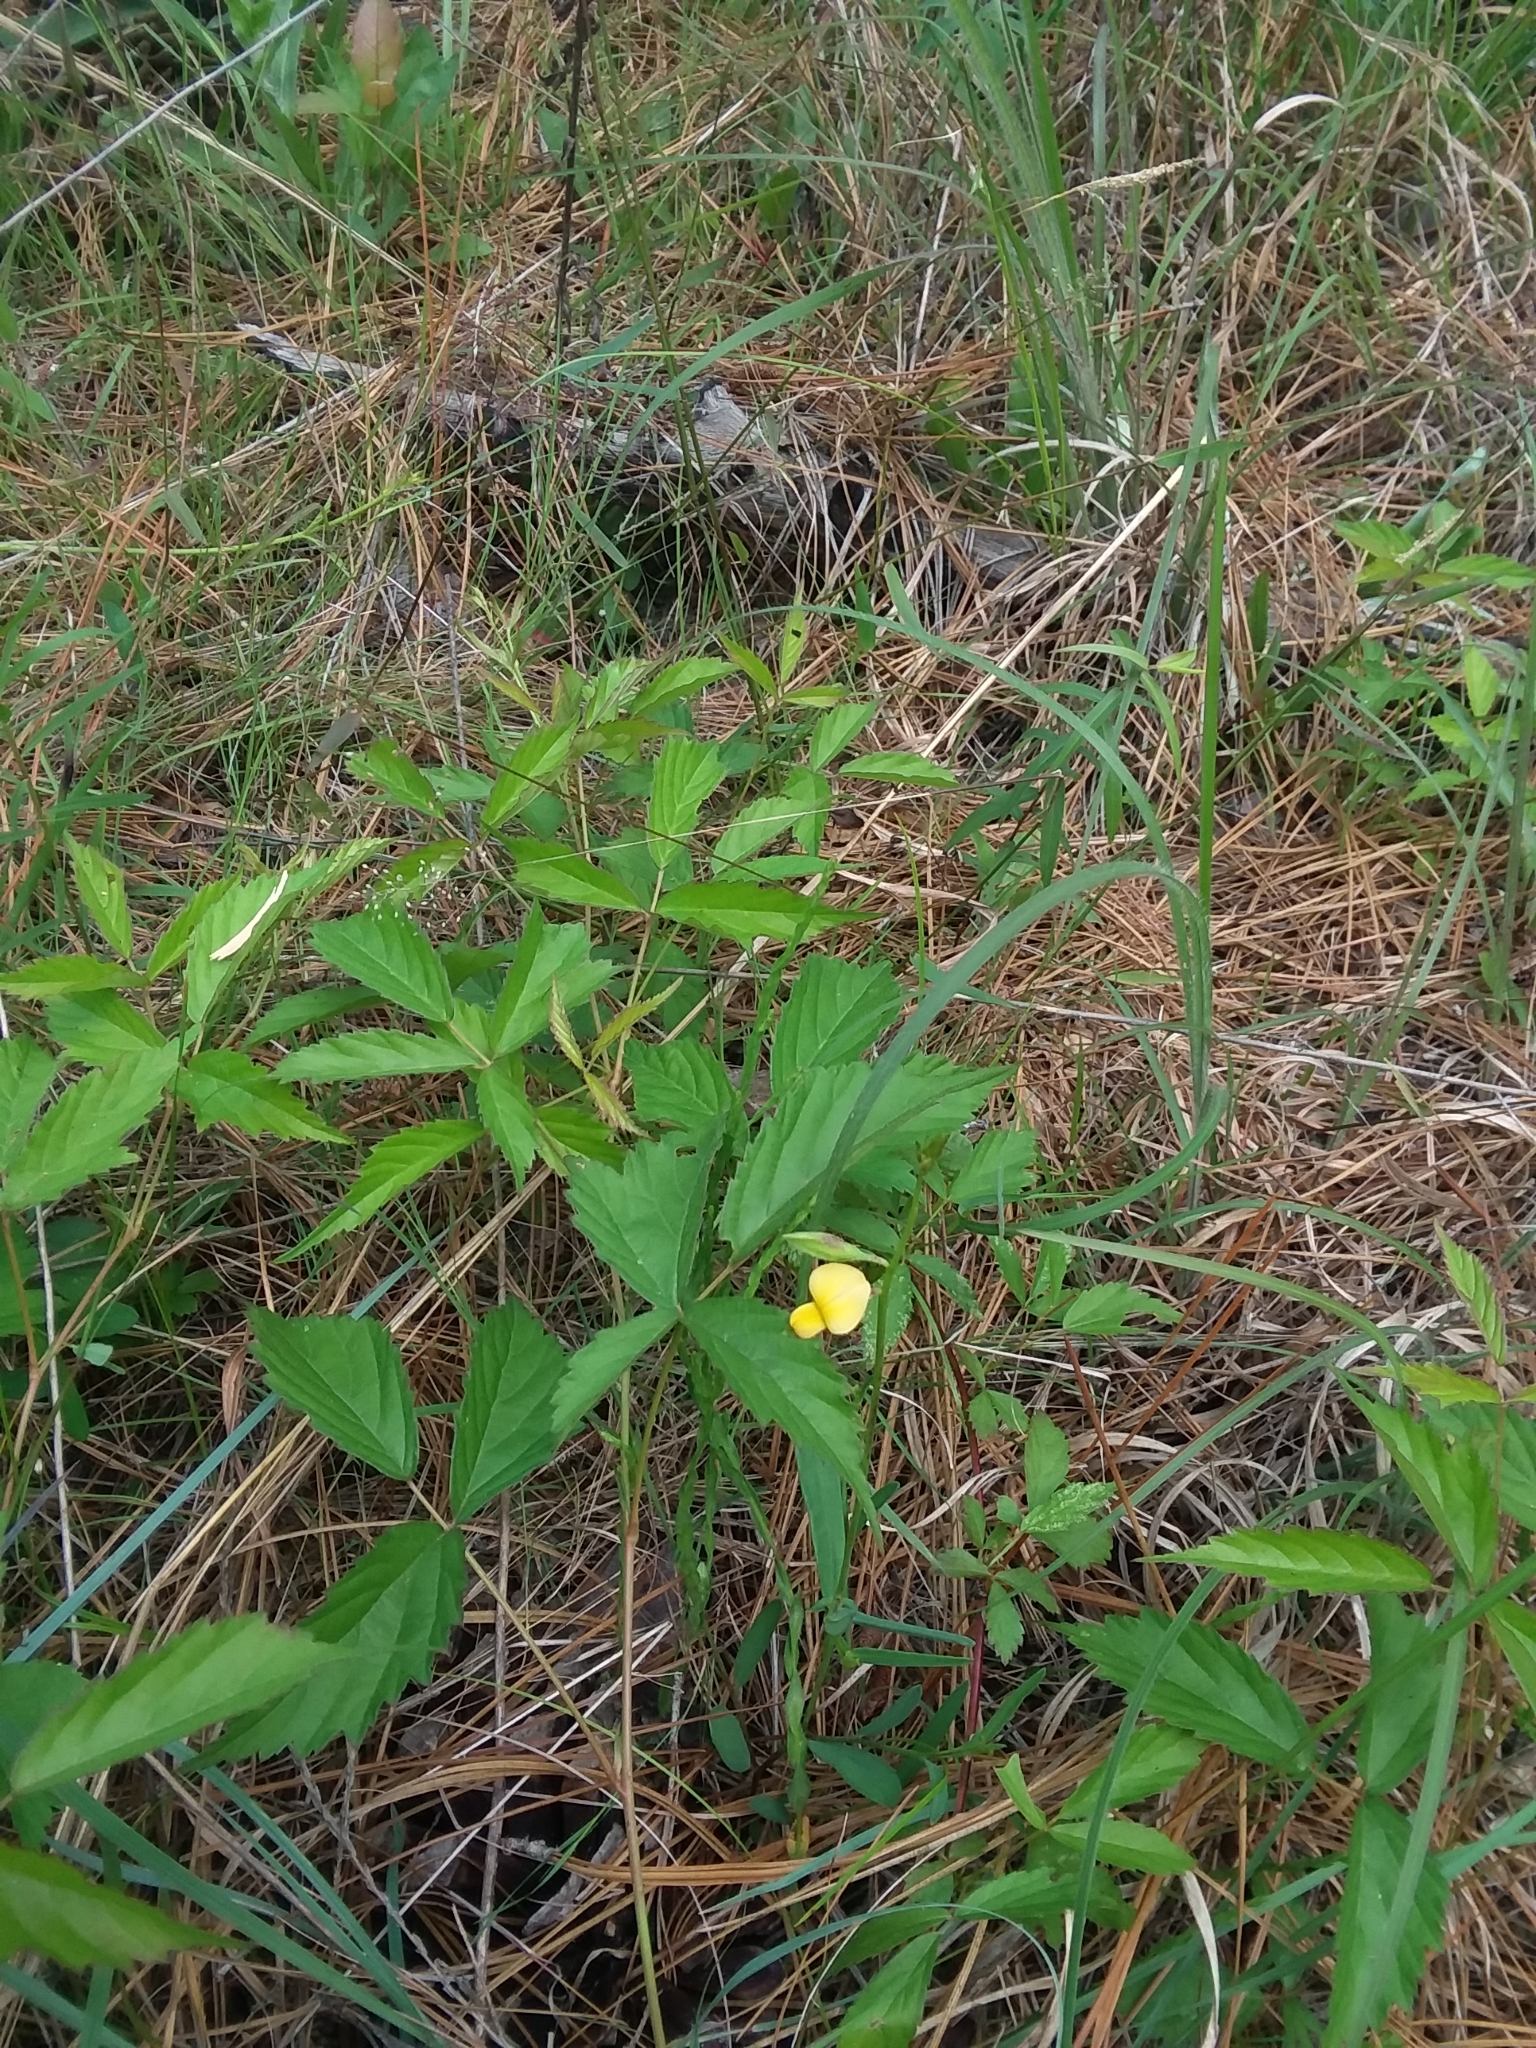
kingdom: Plantae
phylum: Tracheophyta
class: Magnoliopsida
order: Fabales
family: Fabaceae
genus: Crotalaria
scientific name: Crotalaria purshii
